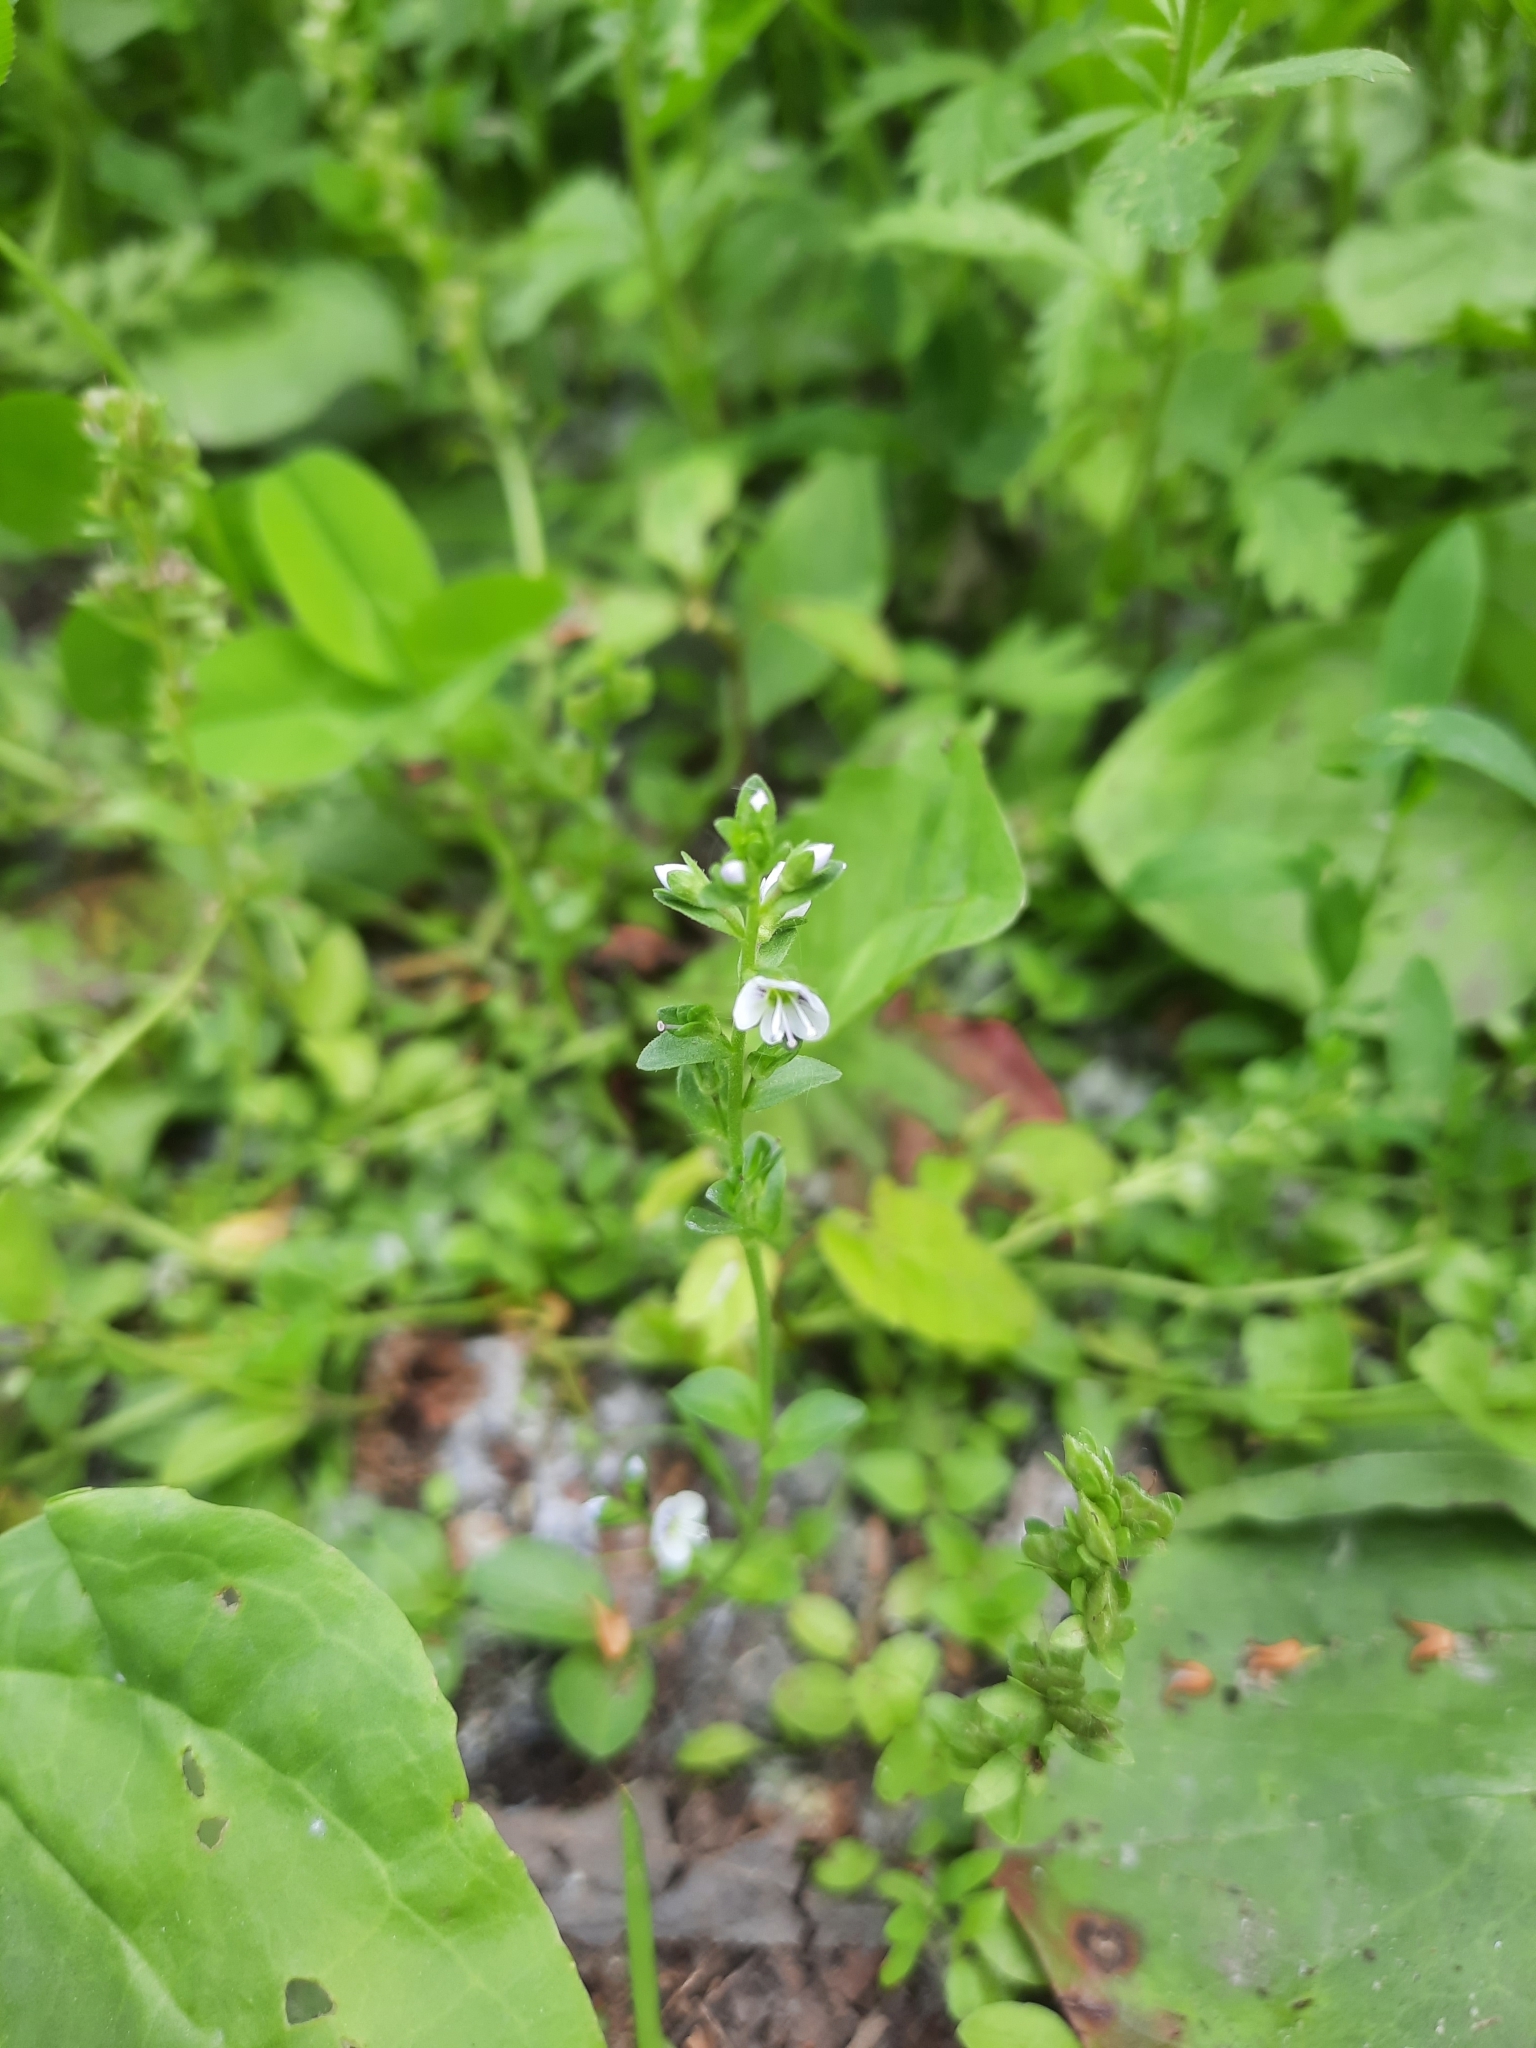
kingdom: Plantae
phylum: Tracheophyta
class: Magnoliopsida
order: Lamiales
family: Plantaginaceae
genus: Veronica
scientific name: Veronica serpyllifolia
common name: Thyme-leaved speedwell
